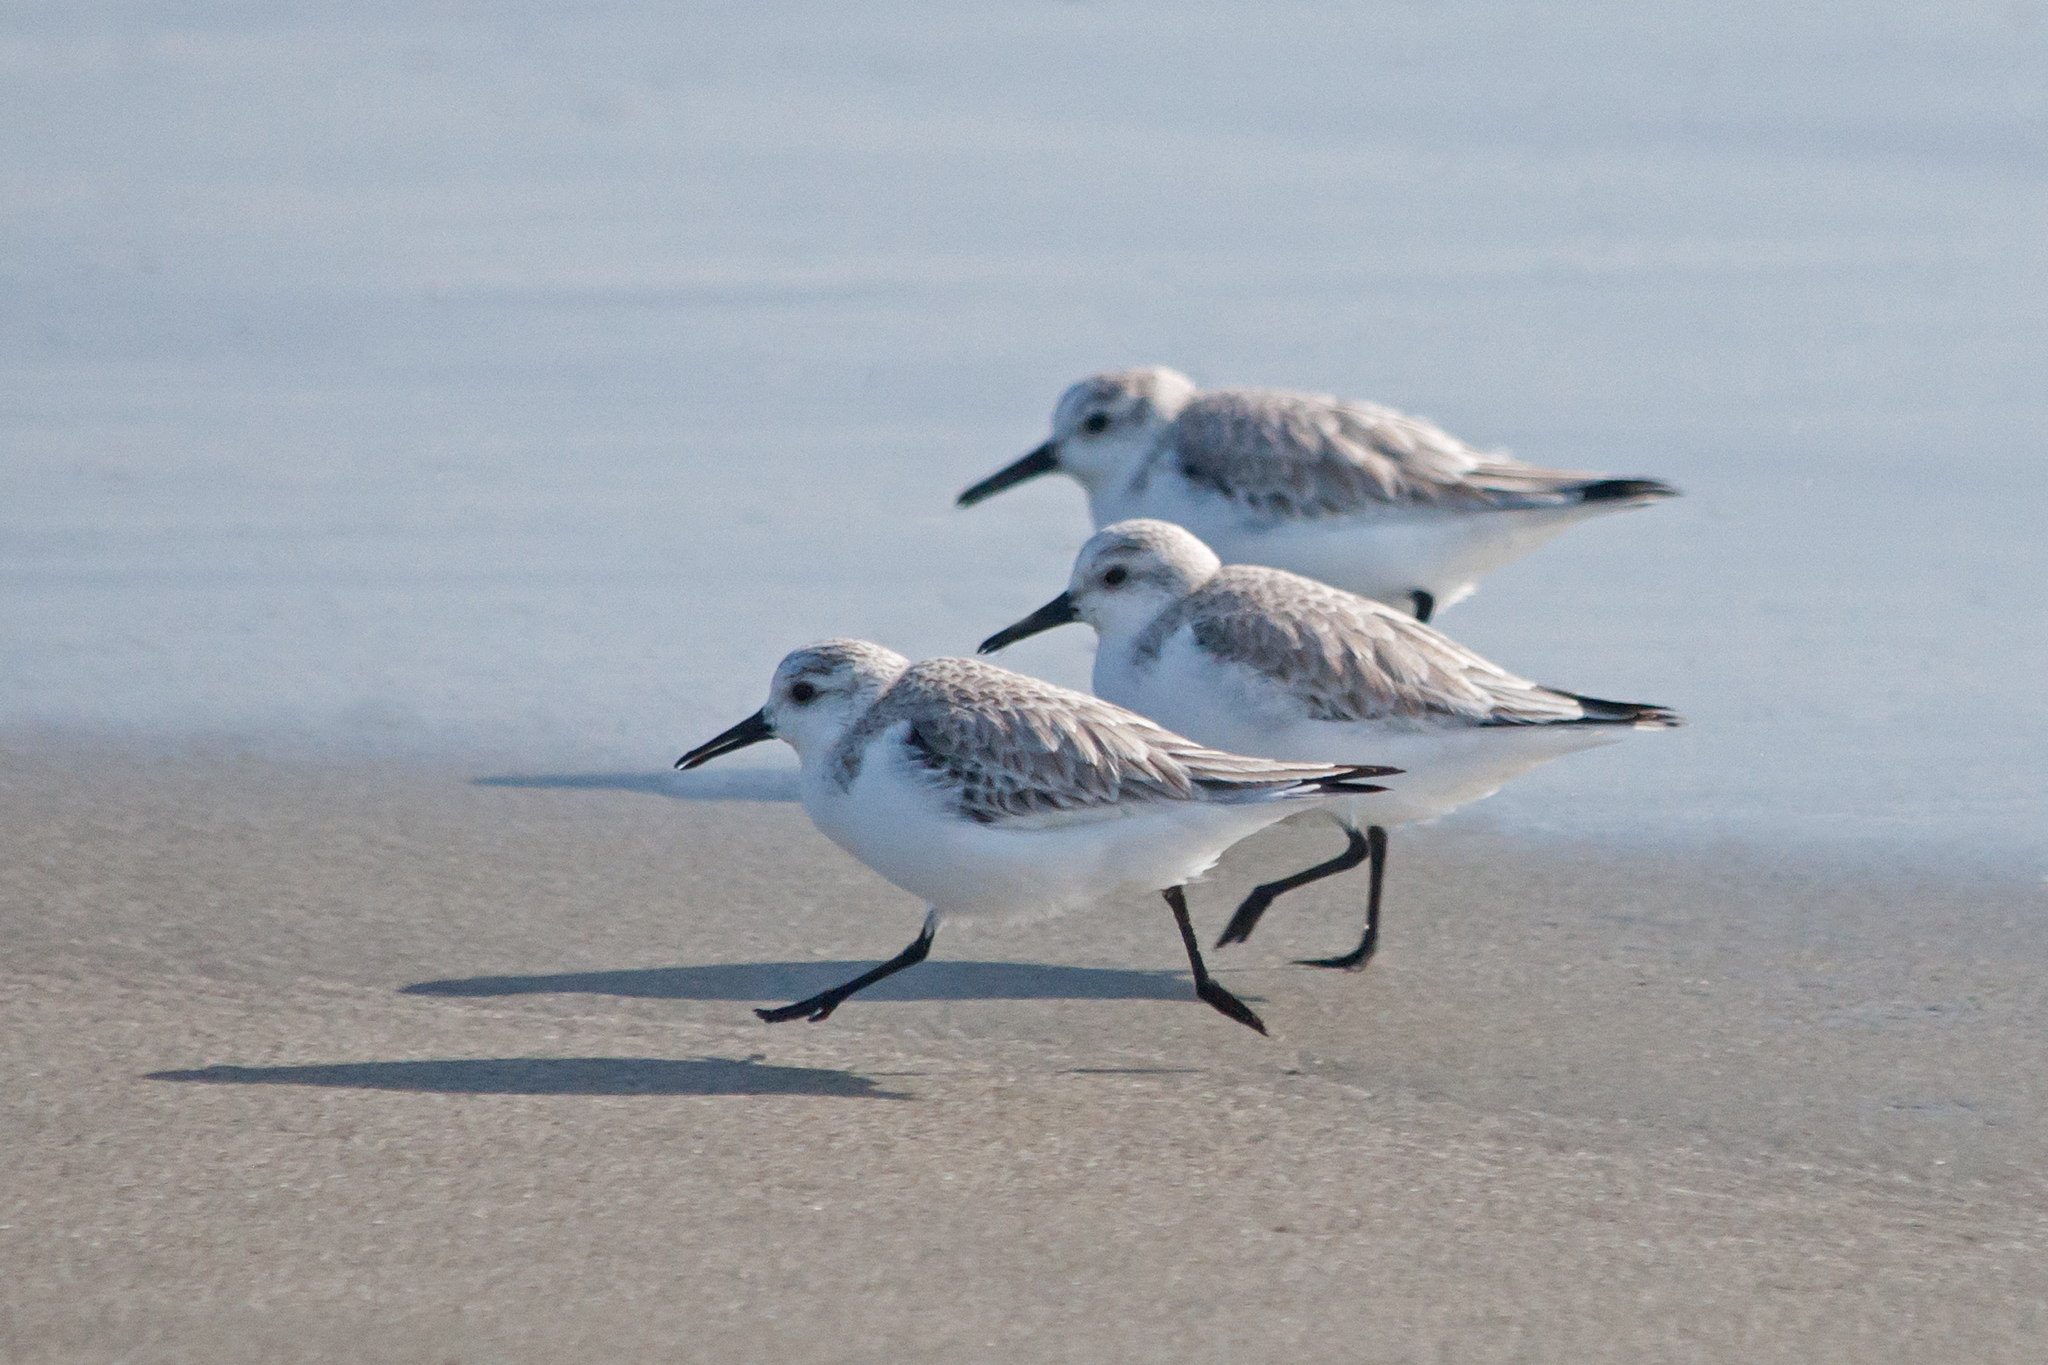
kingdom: Animalia
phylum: Chordata
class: Aves
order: Charadriiformes
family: Scolopacidae
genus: Calidris
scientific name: Calidris alba
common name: Sanderling
